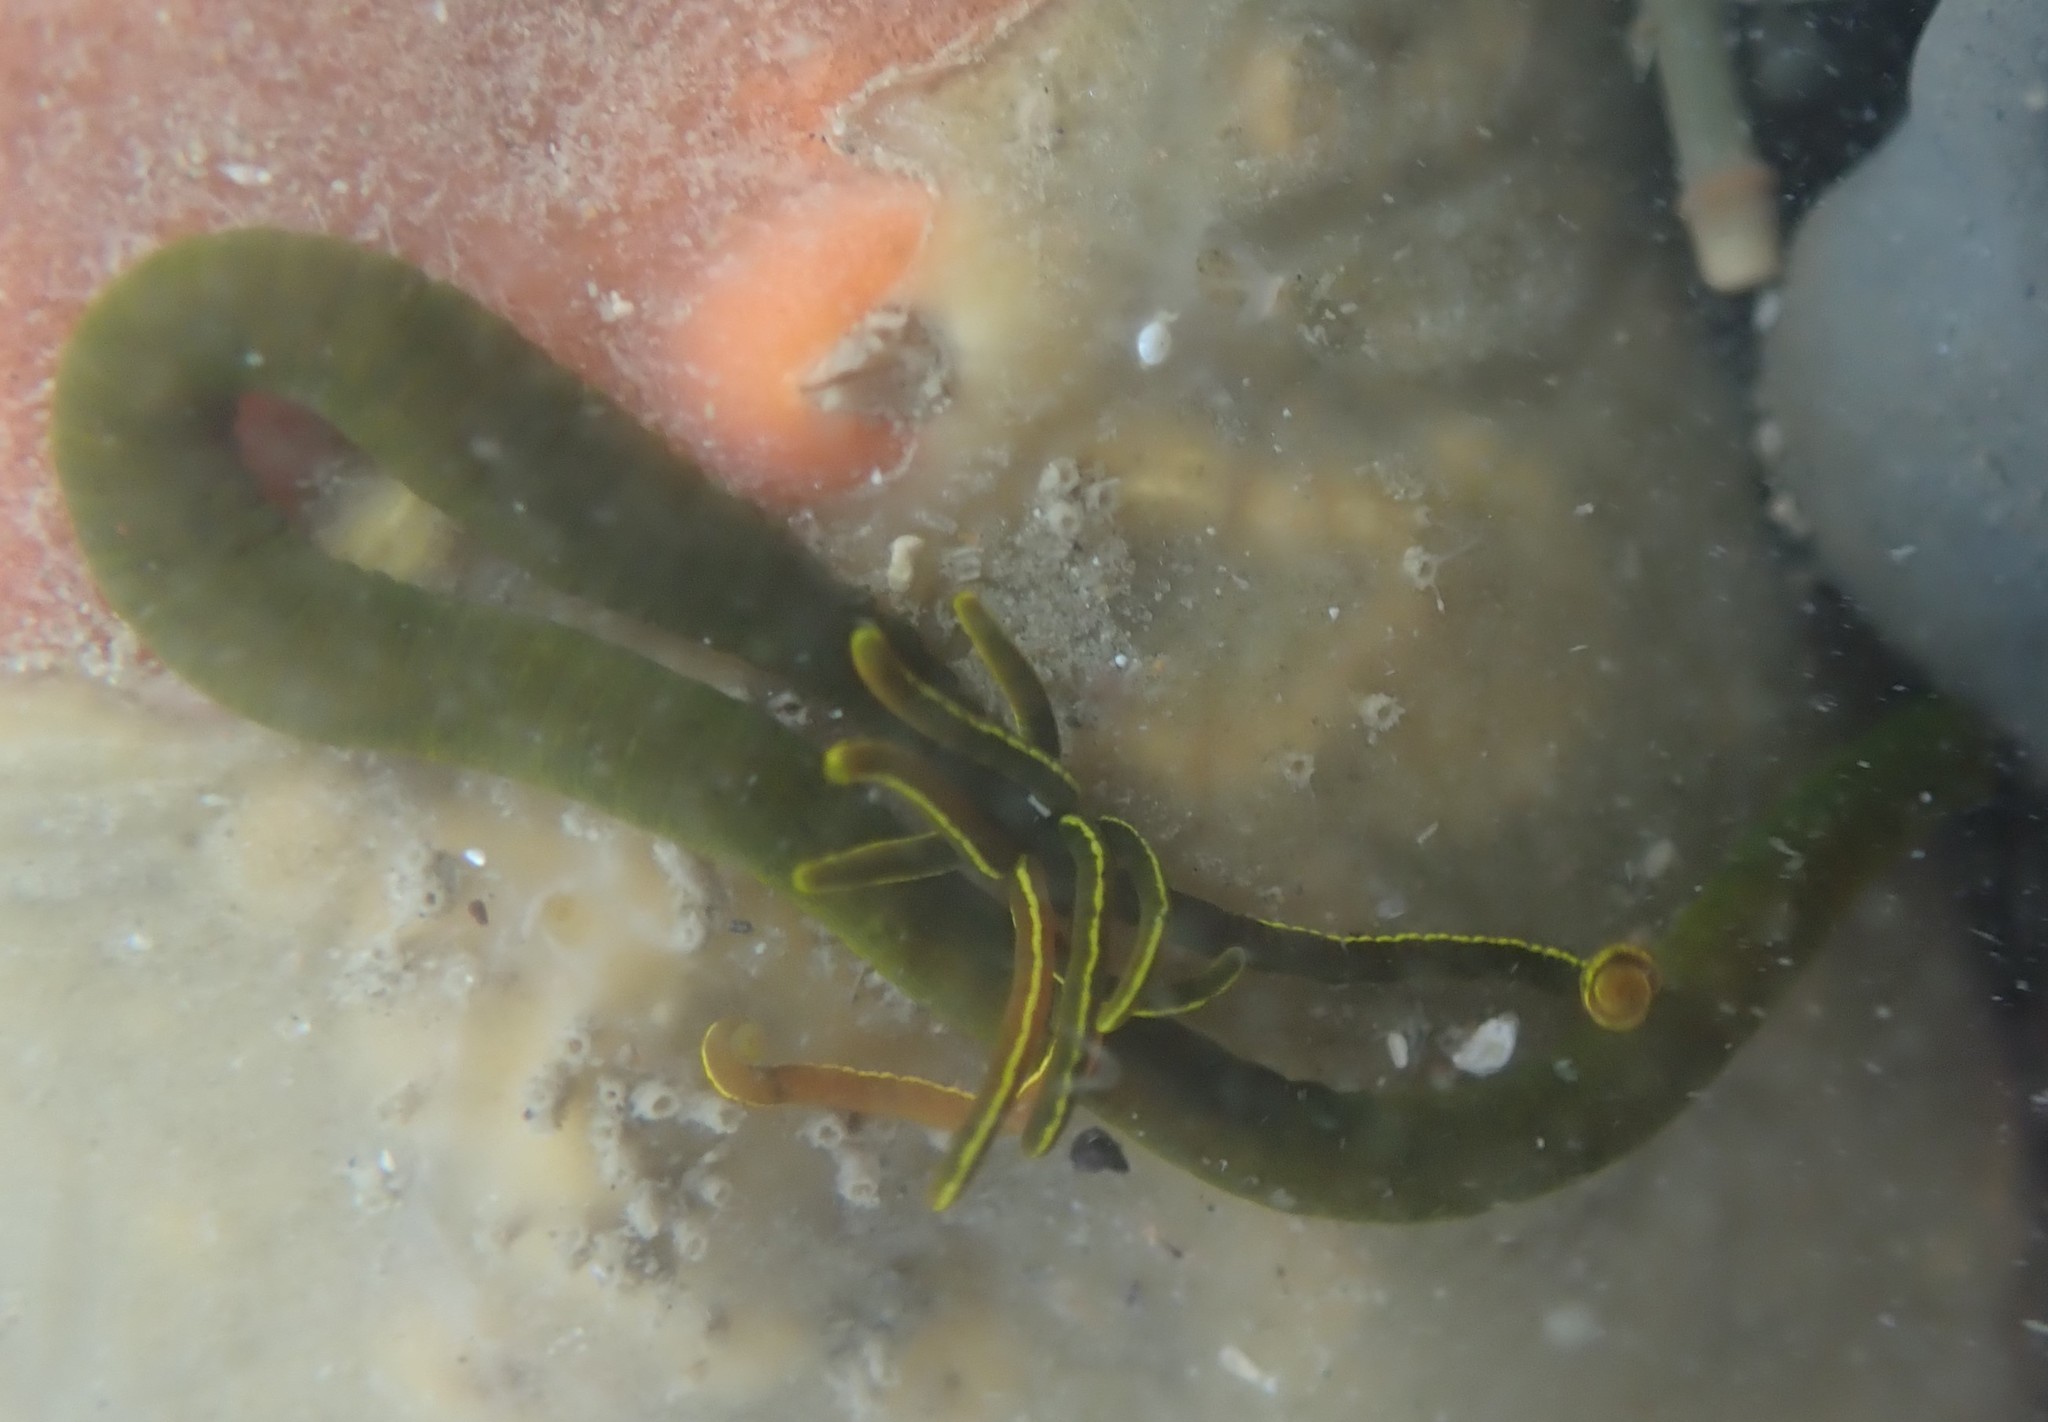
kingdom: Animalia
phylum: Annelida
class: Polychaeta
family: Acrocirridae
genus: Acrocirrus
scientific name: Acrocirrus trisectus
